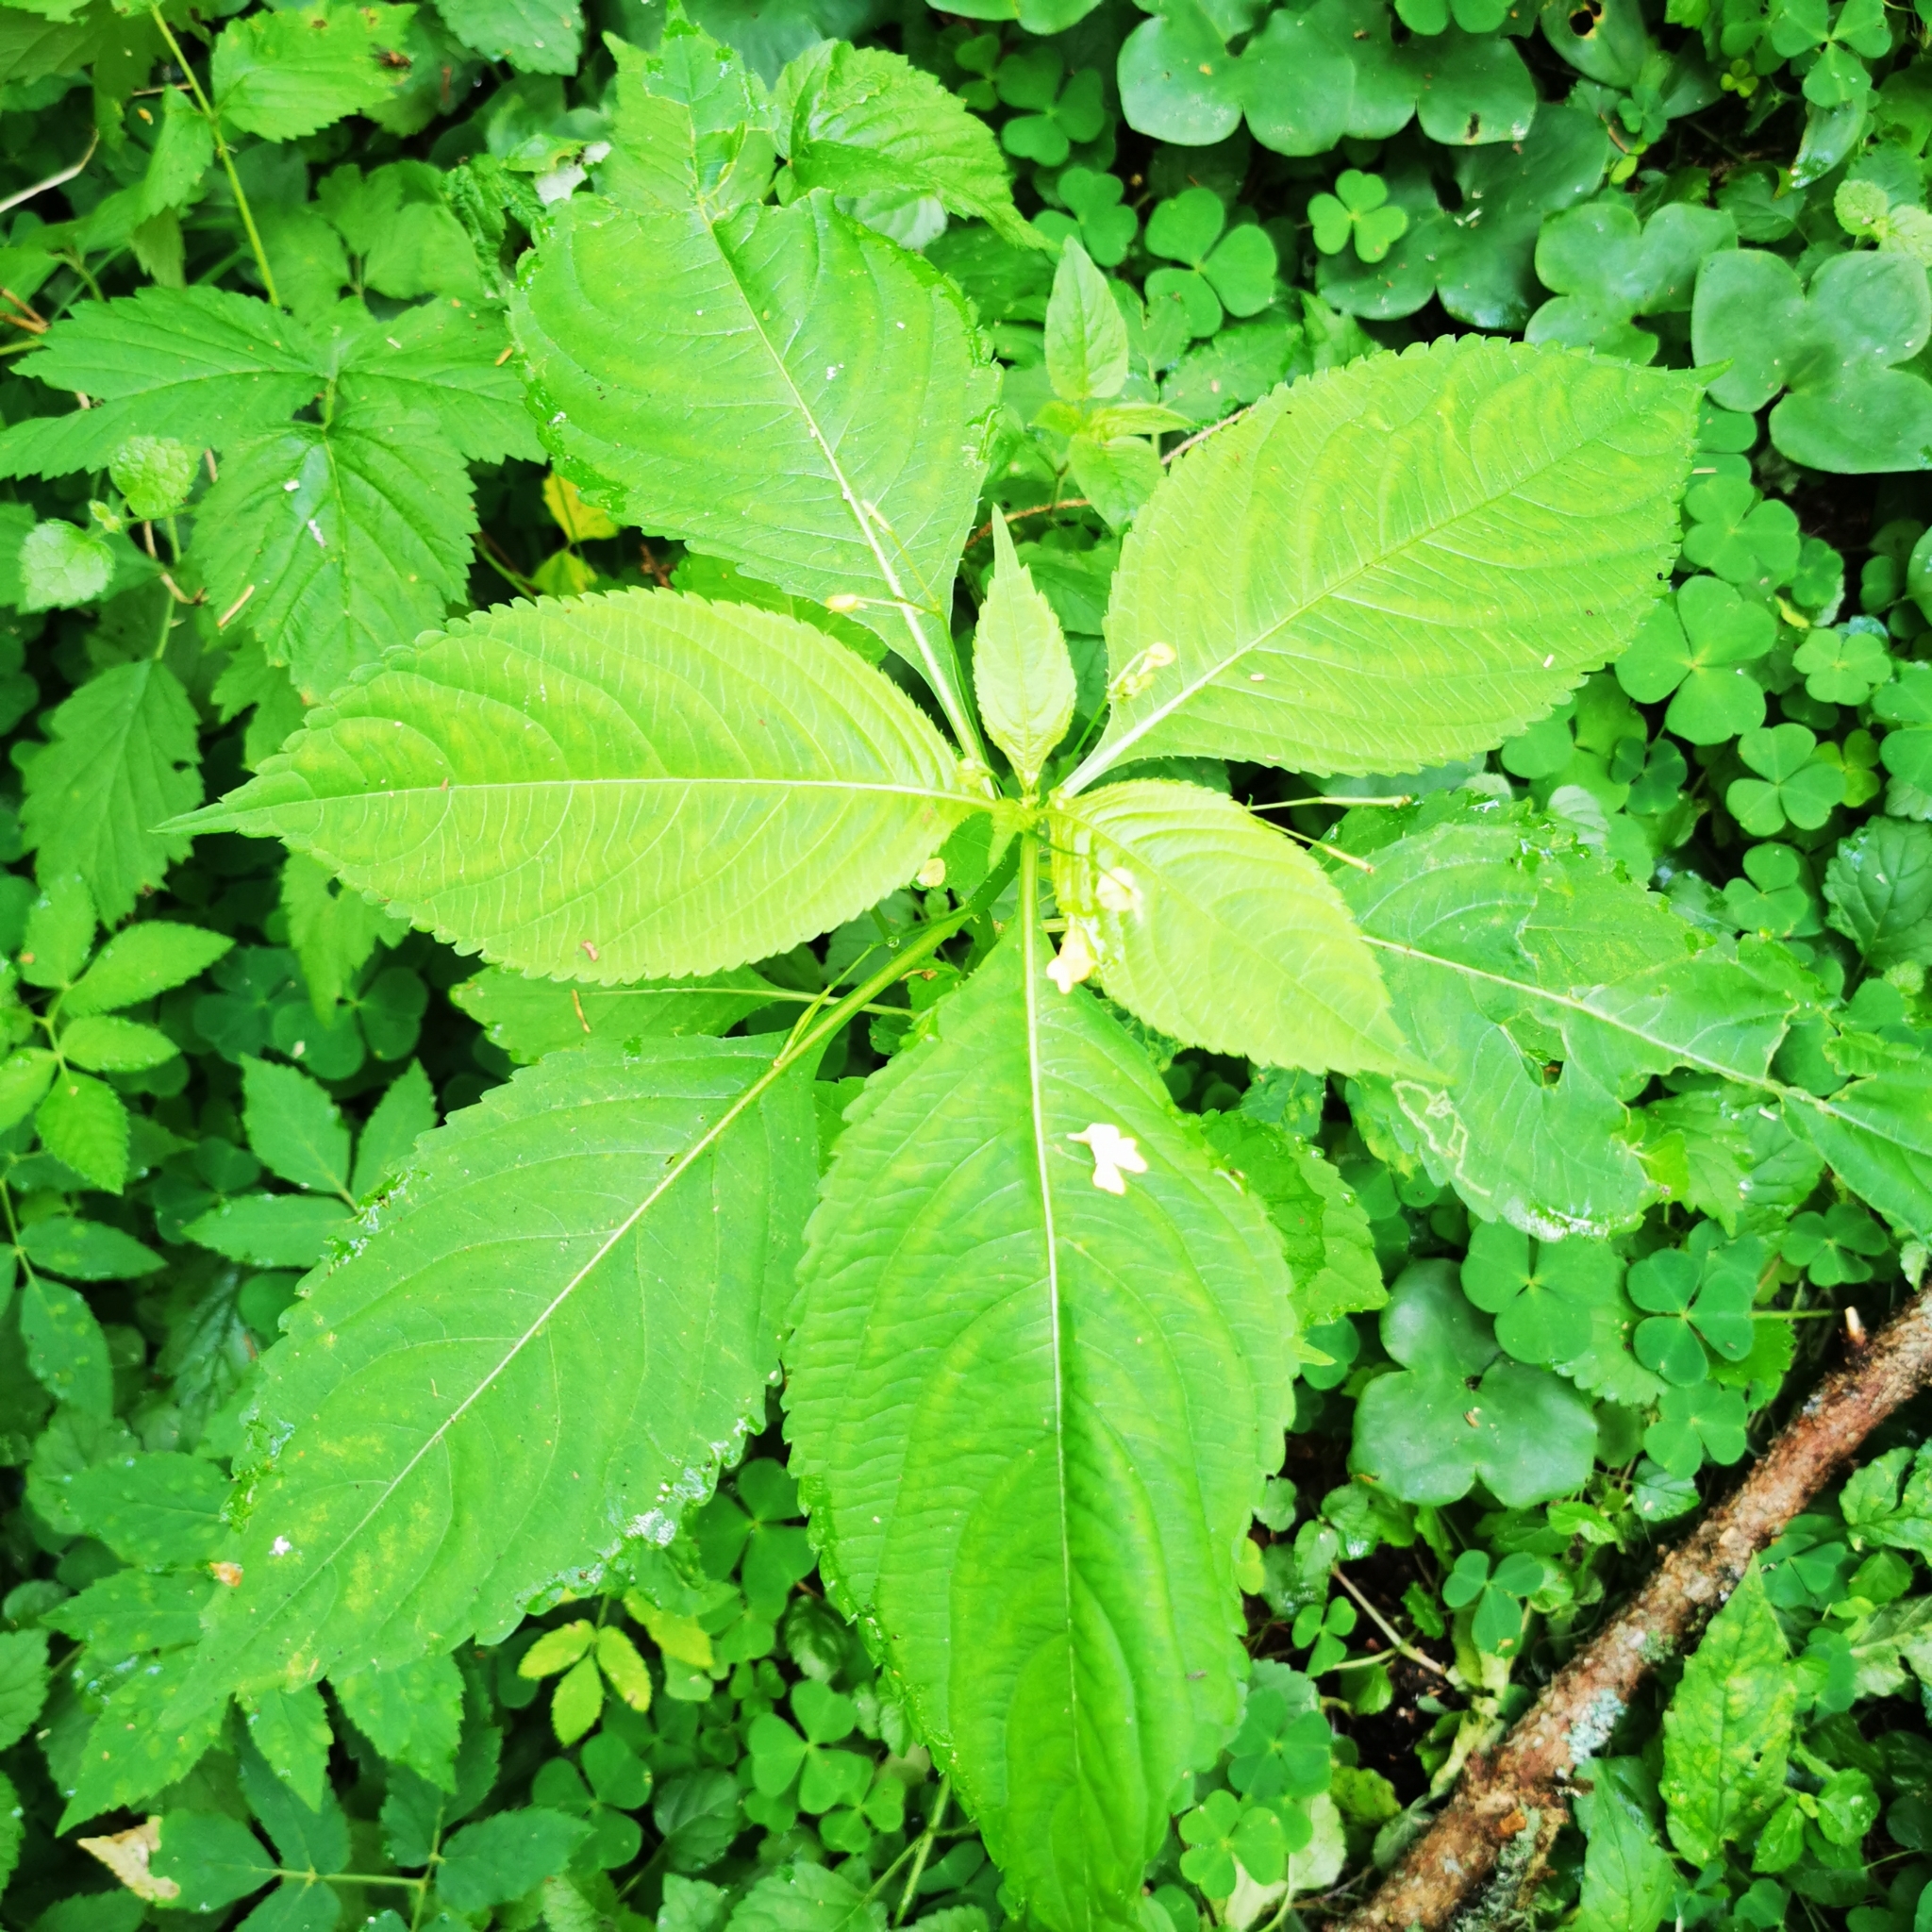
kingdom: Plantae
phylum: Tracheophyta
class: Magnoliopsida
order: Ericales
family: Balsaminaceae
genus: Impatiens
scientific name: Impatiens parviflora
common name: Small balsam
